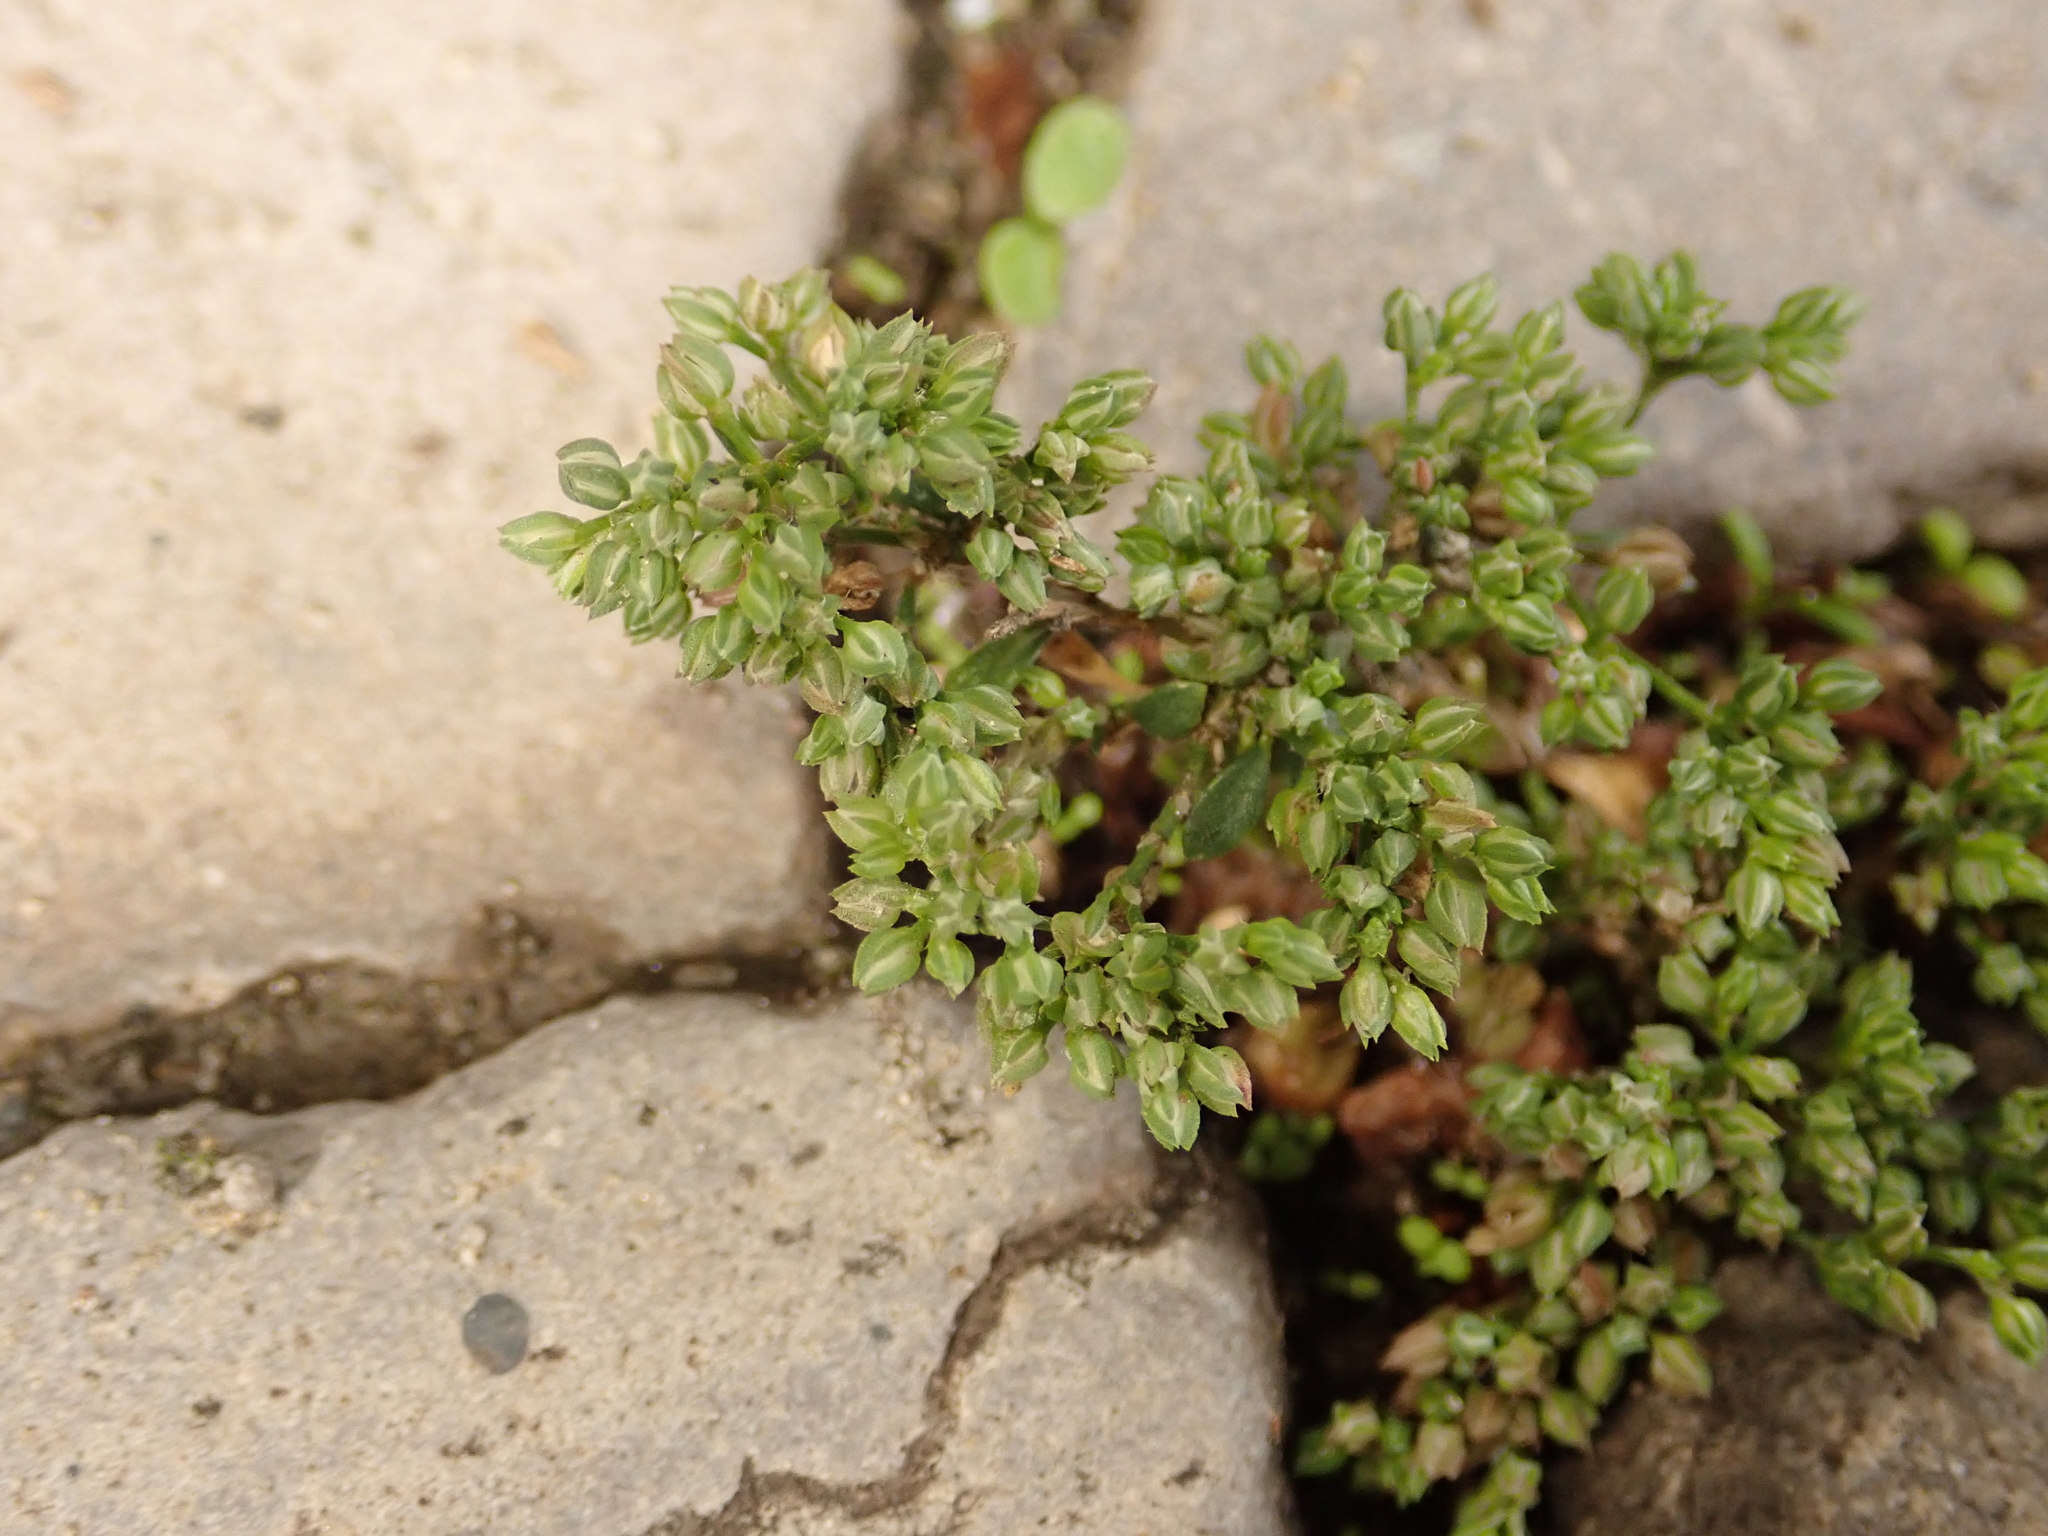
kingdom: Plantae
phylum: Tracheophyta
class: Magnoliopsida
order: Caryophyllales
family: Caryophyllaceae
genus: Polycarpon
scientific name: Polycarpon tetraphyllum
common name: Four-leaved all-seed
